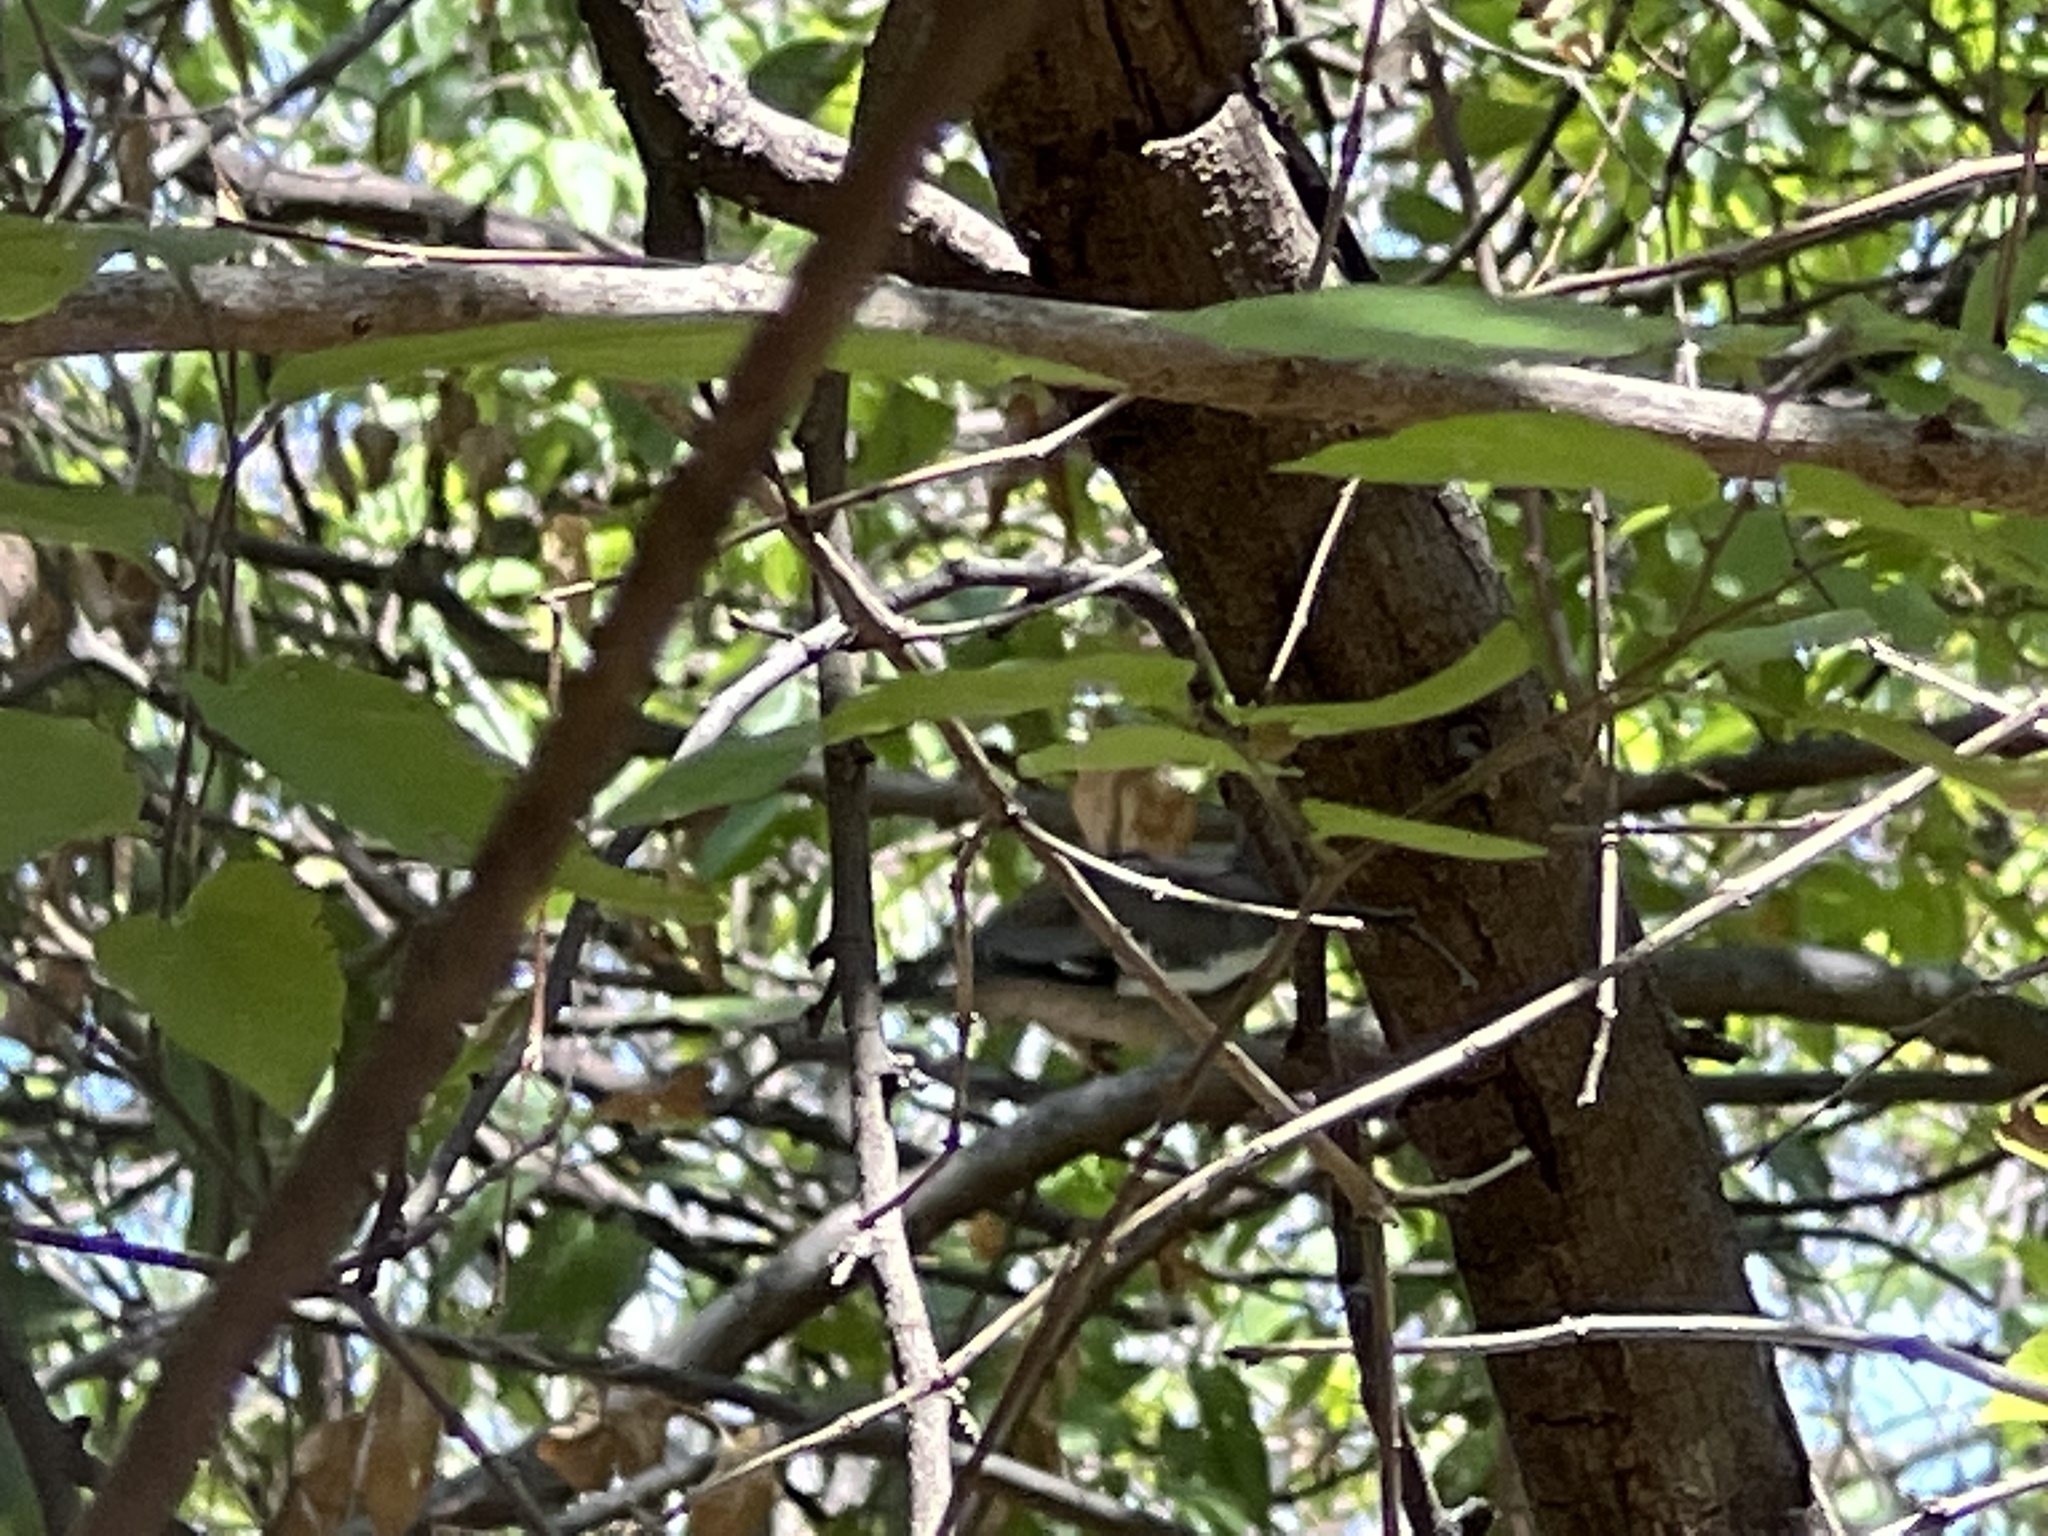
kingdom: Animalia
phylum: Chordata
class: Aves
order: Columbiformes
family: Columbidae
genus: Zenaida
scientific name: Zenaida asiatica
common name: White-winged dove
